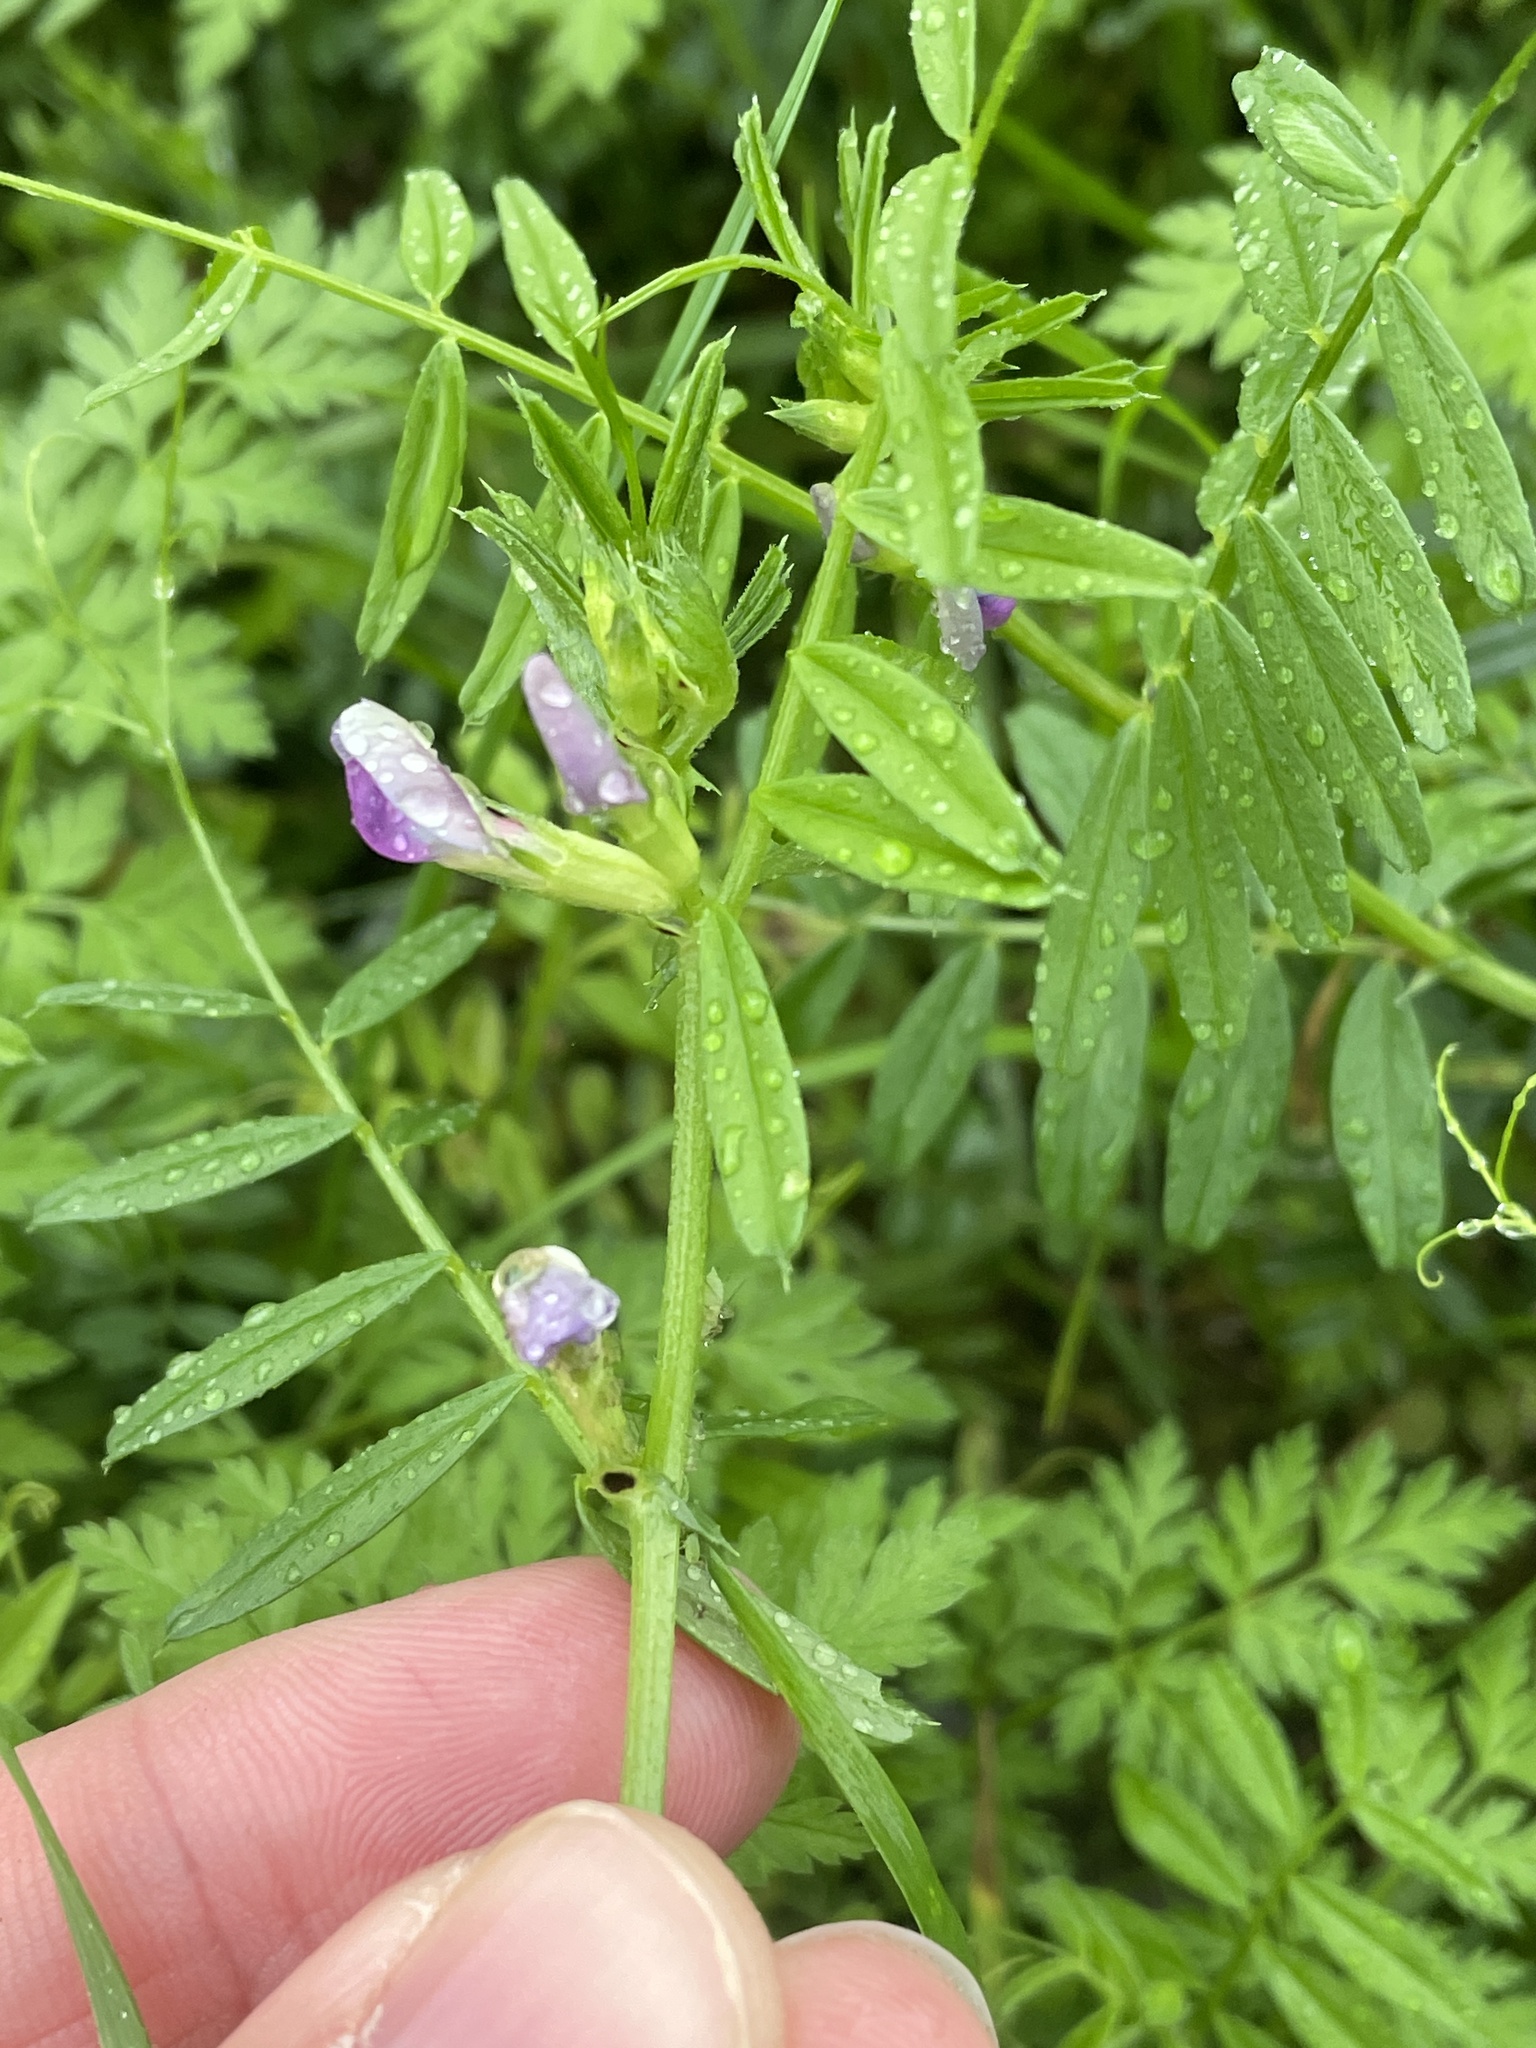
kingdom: Plantae
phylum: Tracheophyta
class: Magnoliopsida
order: Fabales
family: Fabaceae
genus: Vicia
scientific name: Vicia sativa
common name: Garden vetch
